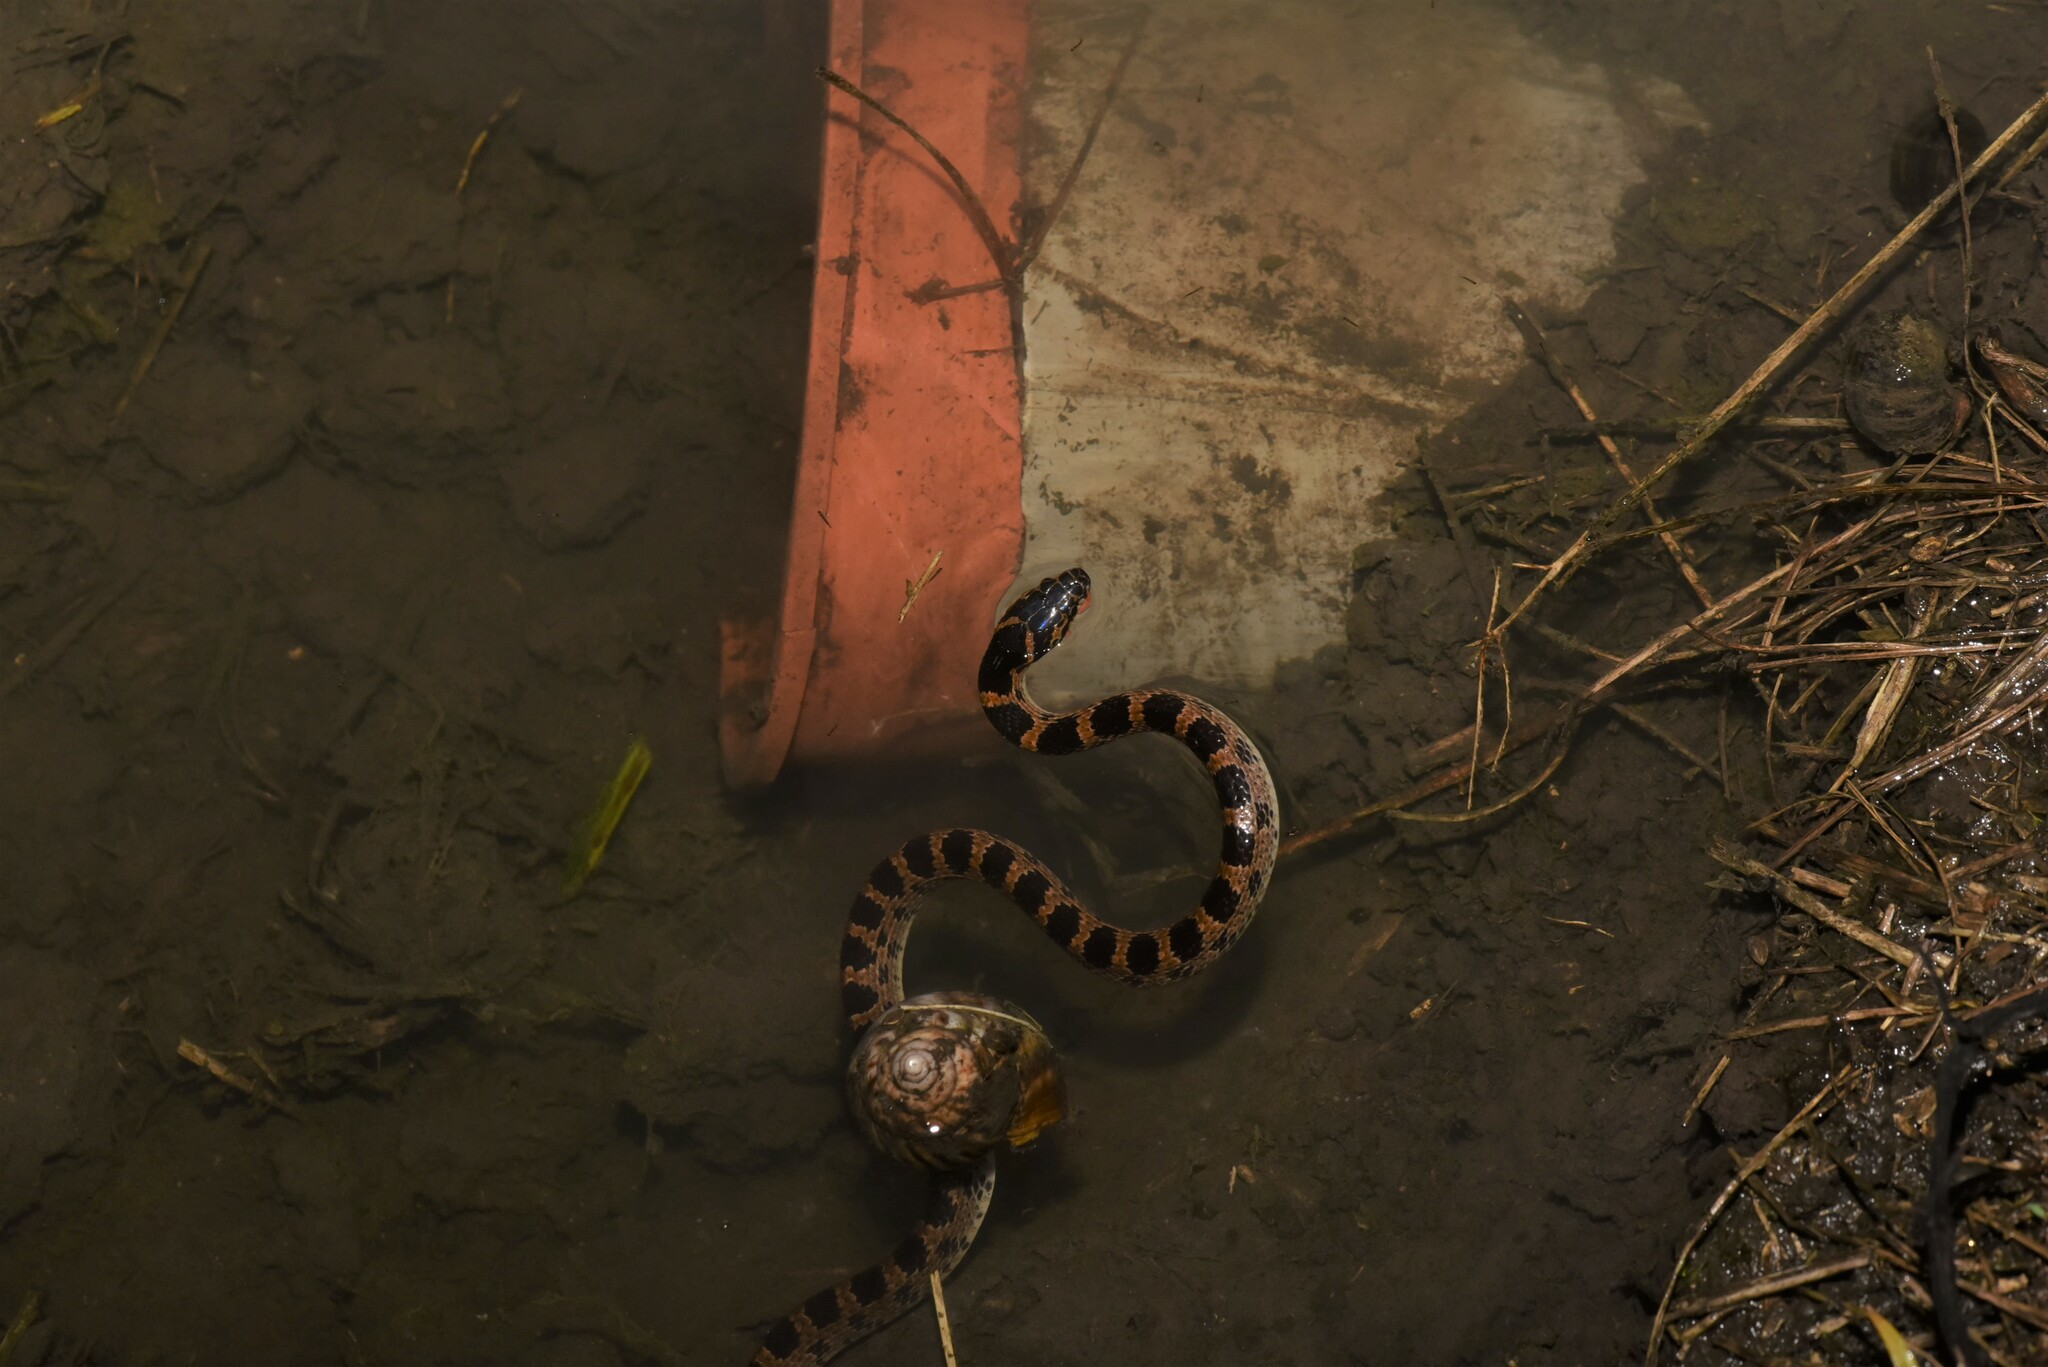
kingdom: Animalia
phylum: Chordata
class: Squamata
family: Colubridae
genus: Lycodon
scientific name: Lycodon rufozonatus
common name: Red-banded snake
